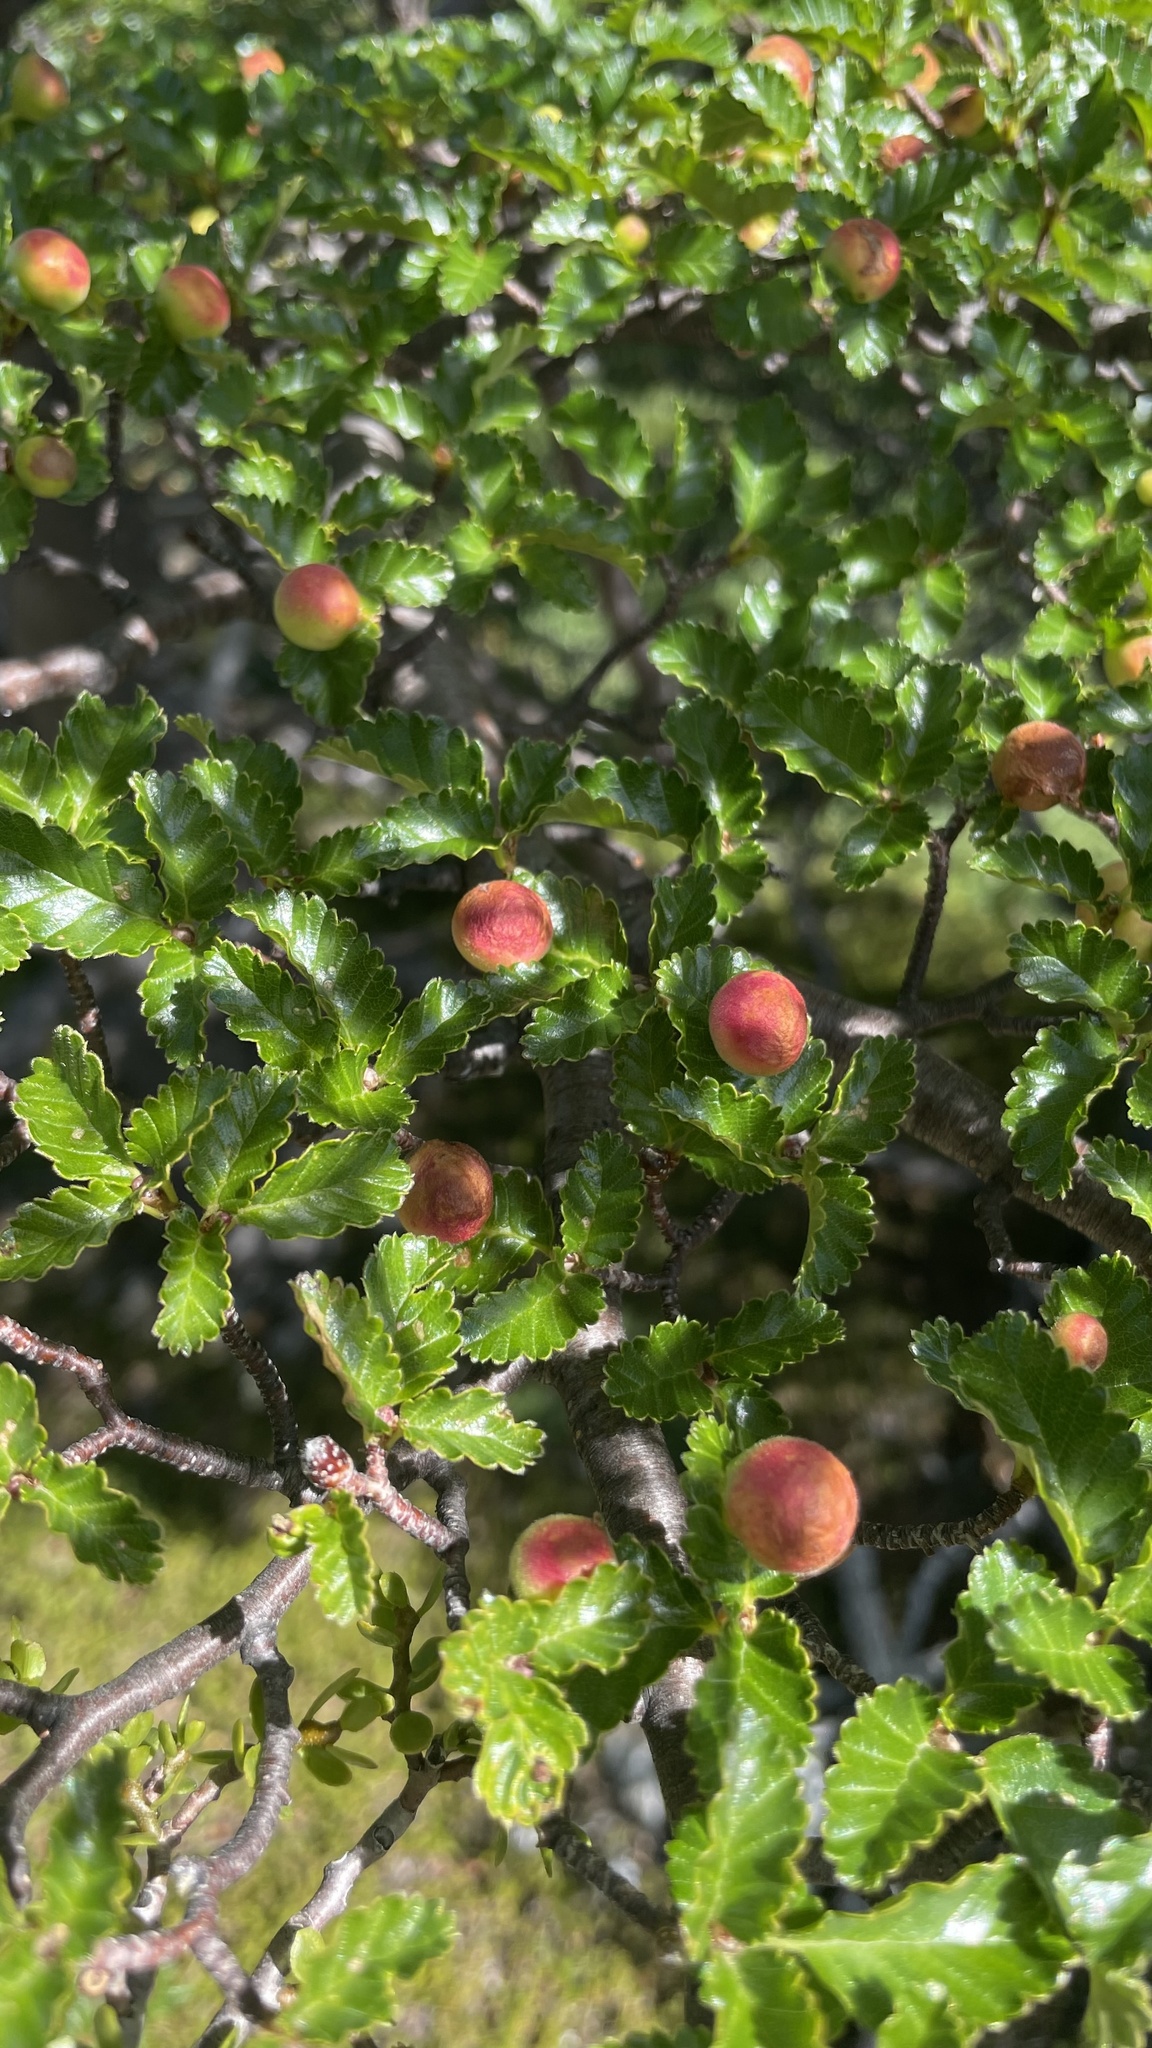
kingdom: Plantae
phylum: Tracheophyta
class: Magnoliopsida
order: Fagales
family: Nothofagaceae
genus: Nothofagus
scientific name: Nothofagus pumilio
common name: Lenga beech
